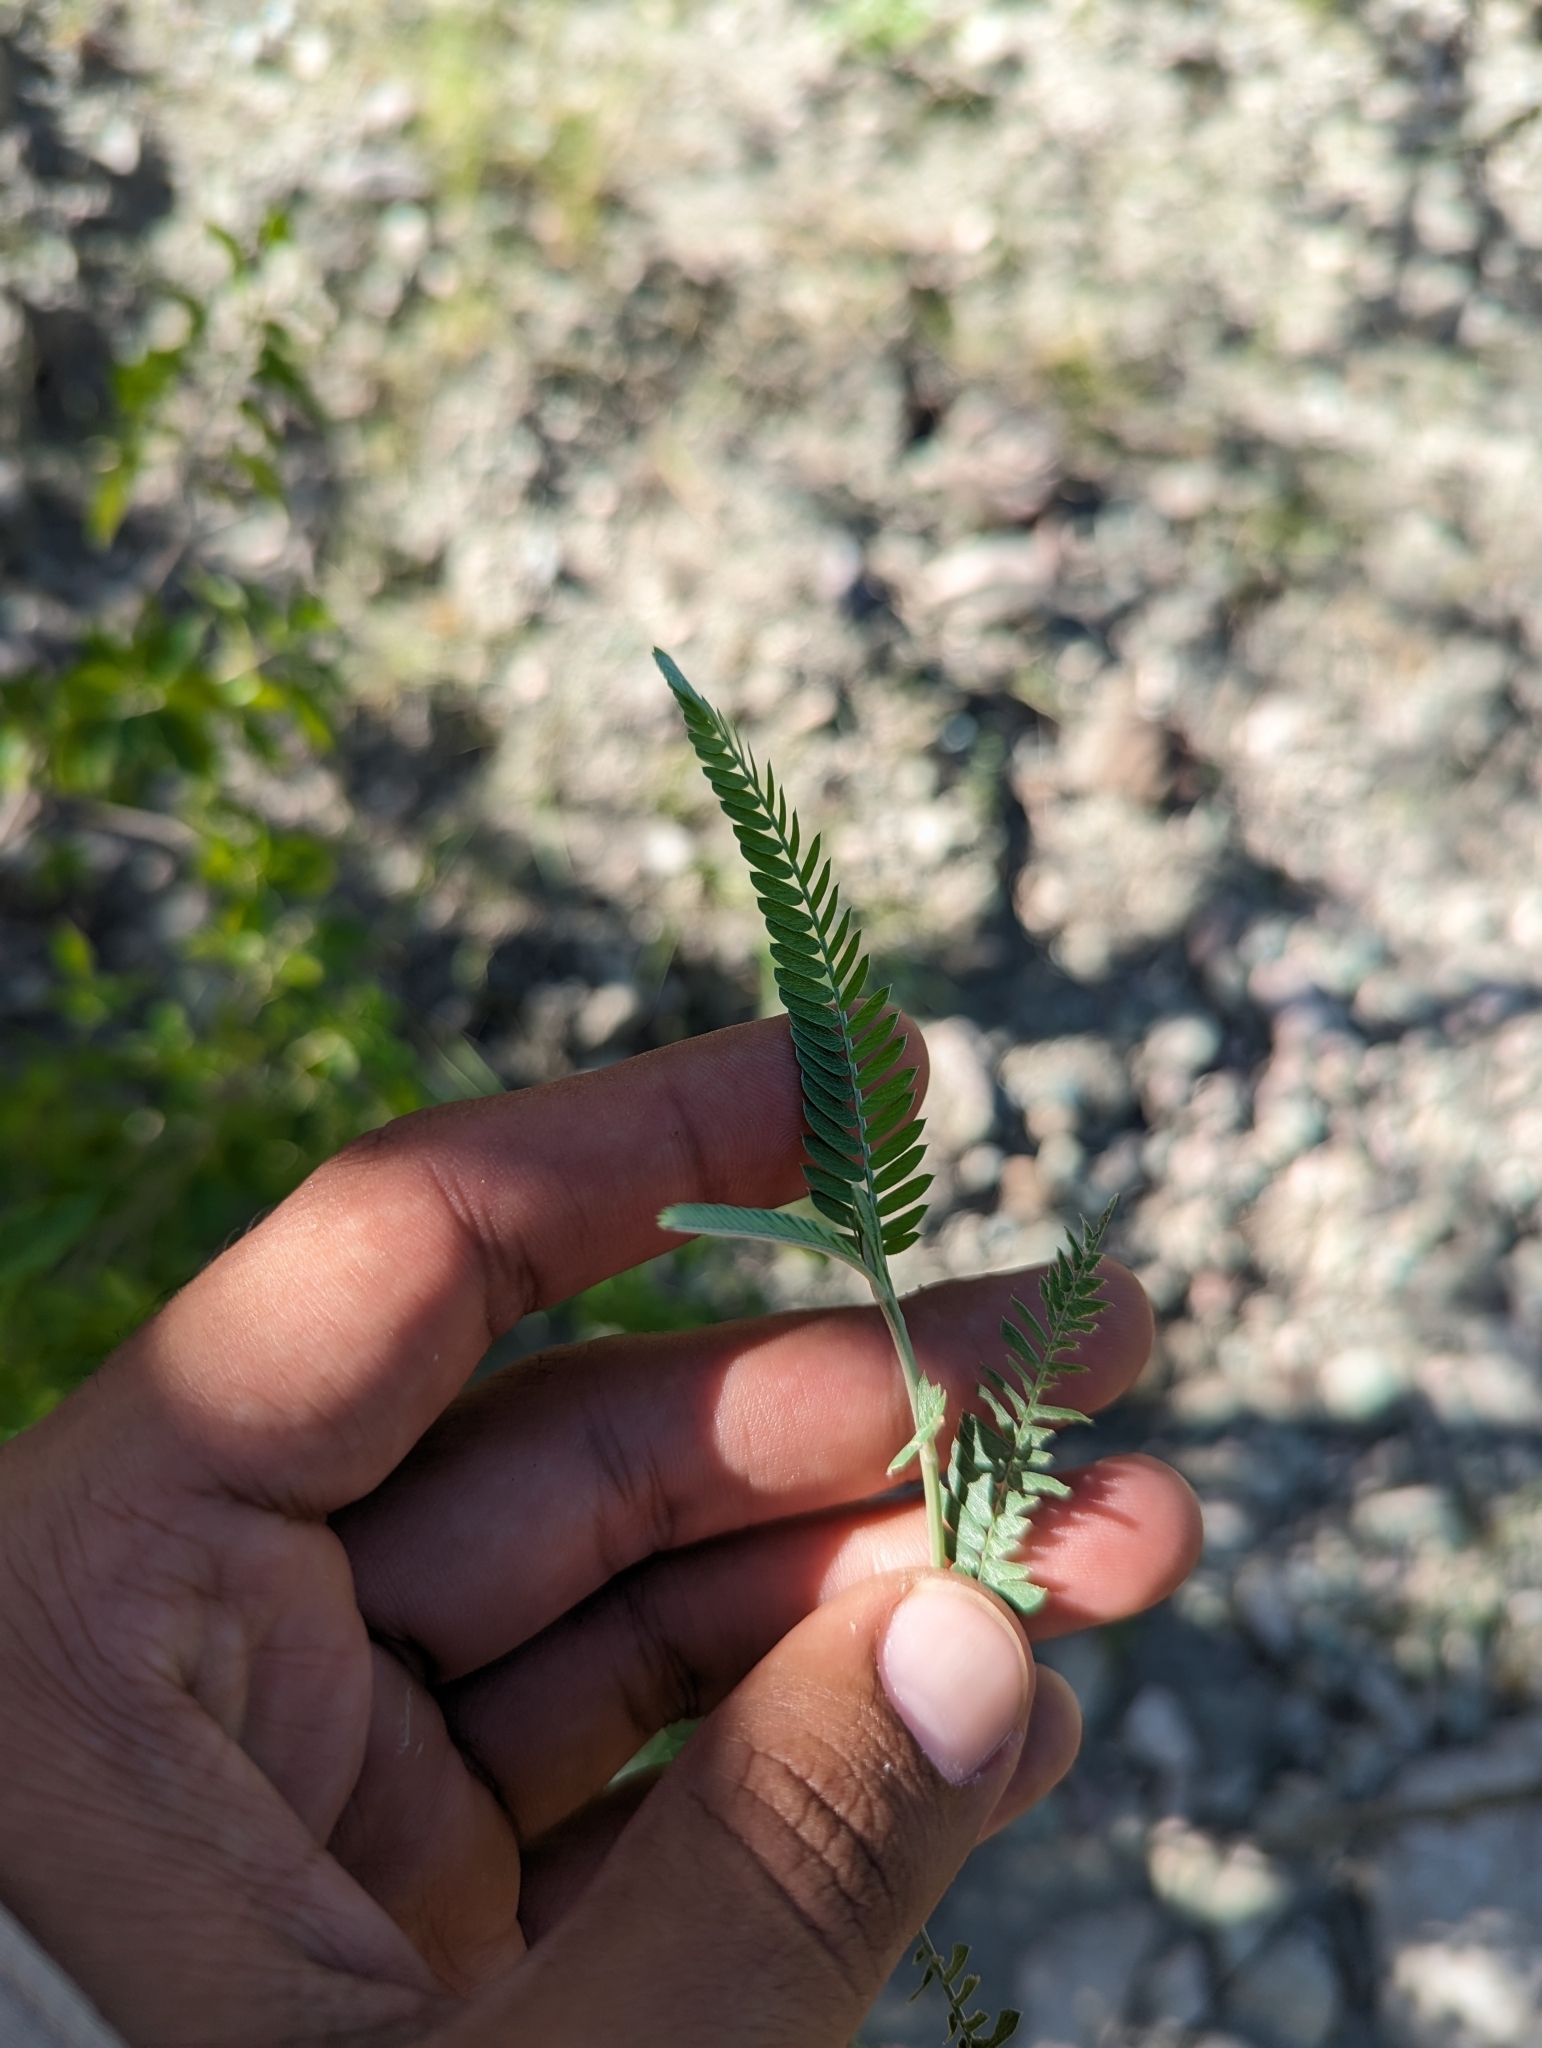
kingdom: Plantae
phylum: Tracheophyta
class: Magnoliopsida
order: Fabales
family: Fabaceae
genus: Ctenodon
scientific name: Ctenodon niveus
